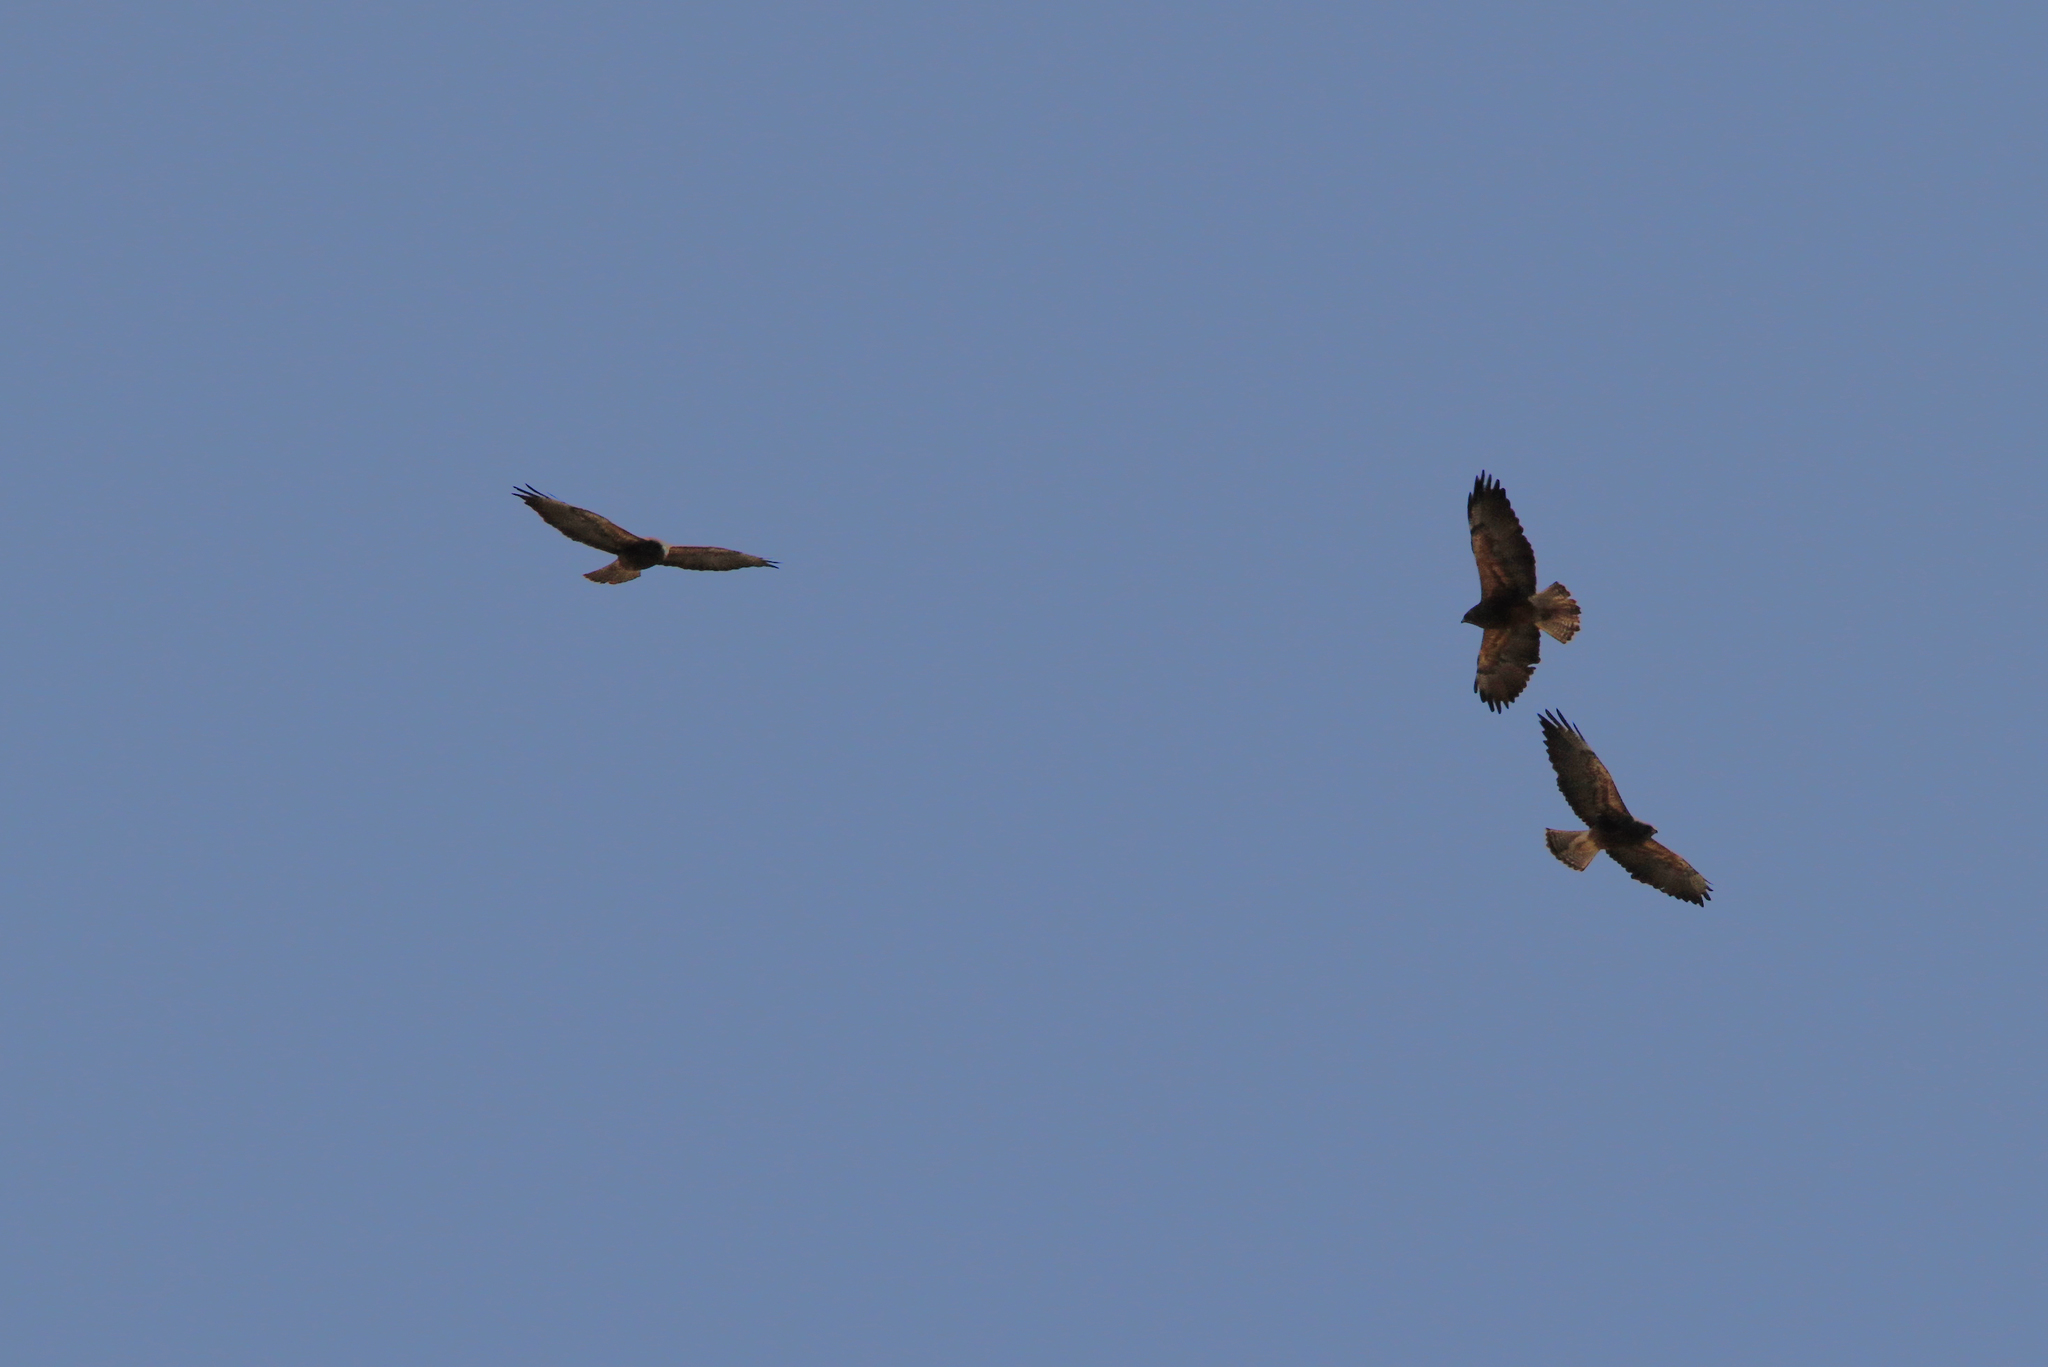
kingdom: Animalia
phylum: Chordata
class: Aves
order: Accipitriformes
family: Accipitridae
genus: Buteo
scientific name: Buteo swainsoni
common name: Swainson's hawk
